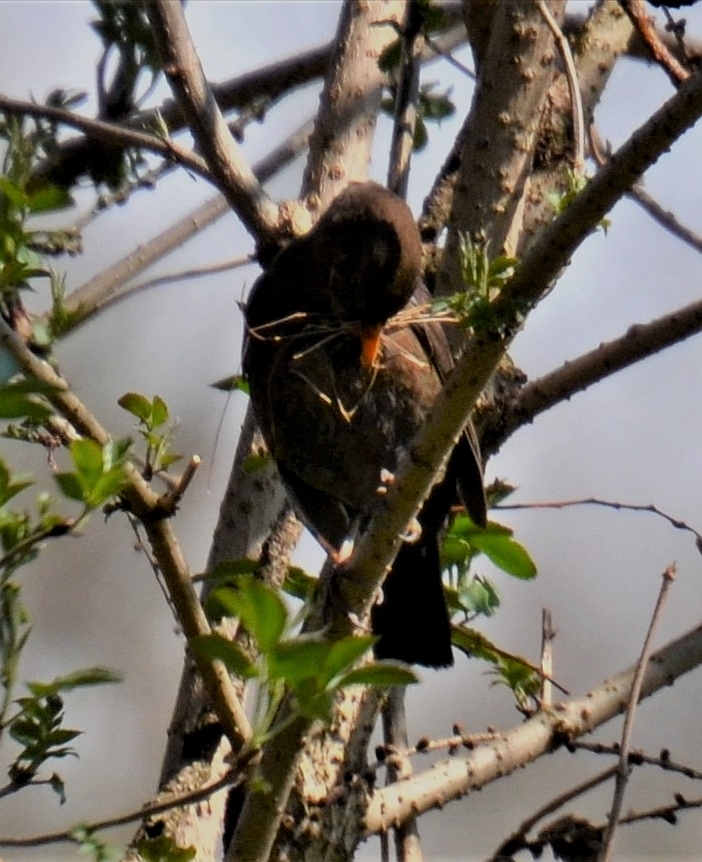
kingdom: Animalia
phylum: Chordata
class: Aves
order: Passeriformes
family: Turdidae
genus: Turdus
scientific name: Turdus merula
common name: Common blackbird
